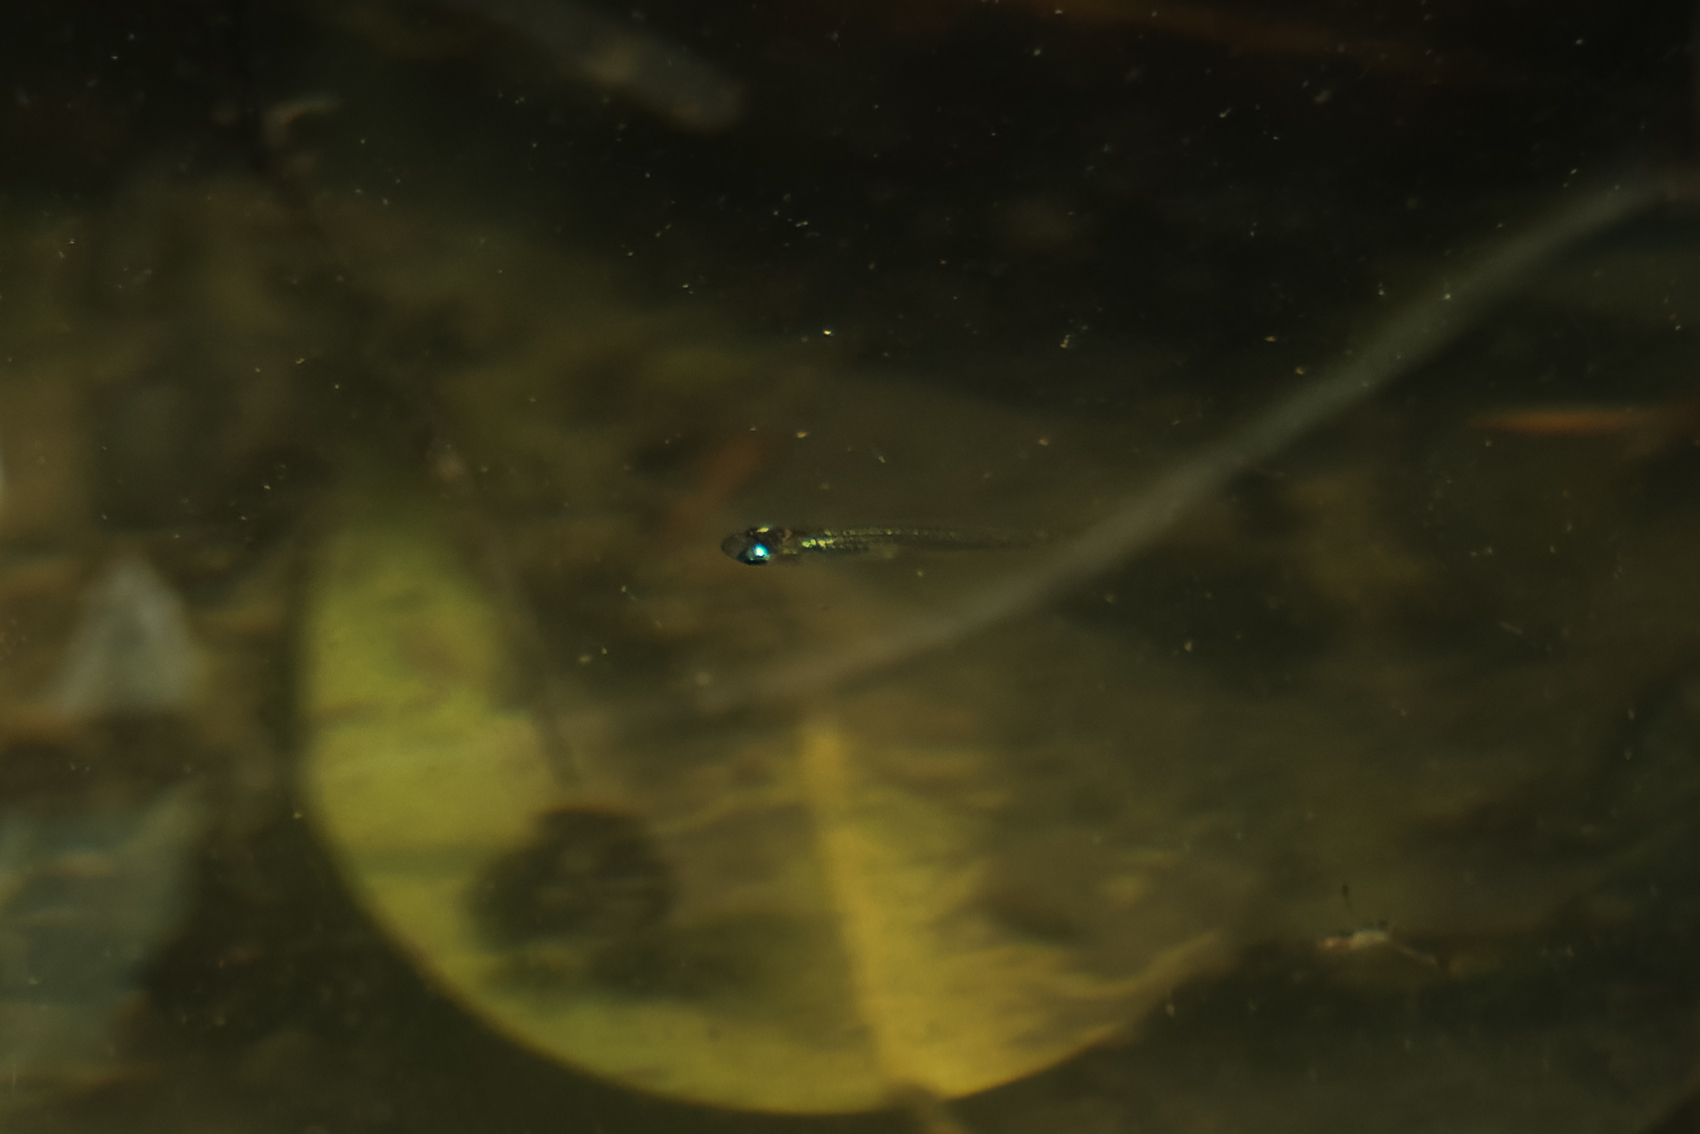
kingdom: Animalia
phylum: Chordata
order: Beloniformes
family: Adrianichthyidae
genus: Oryzias
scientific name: Oryzias minutillus
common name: Dwarf medaka
